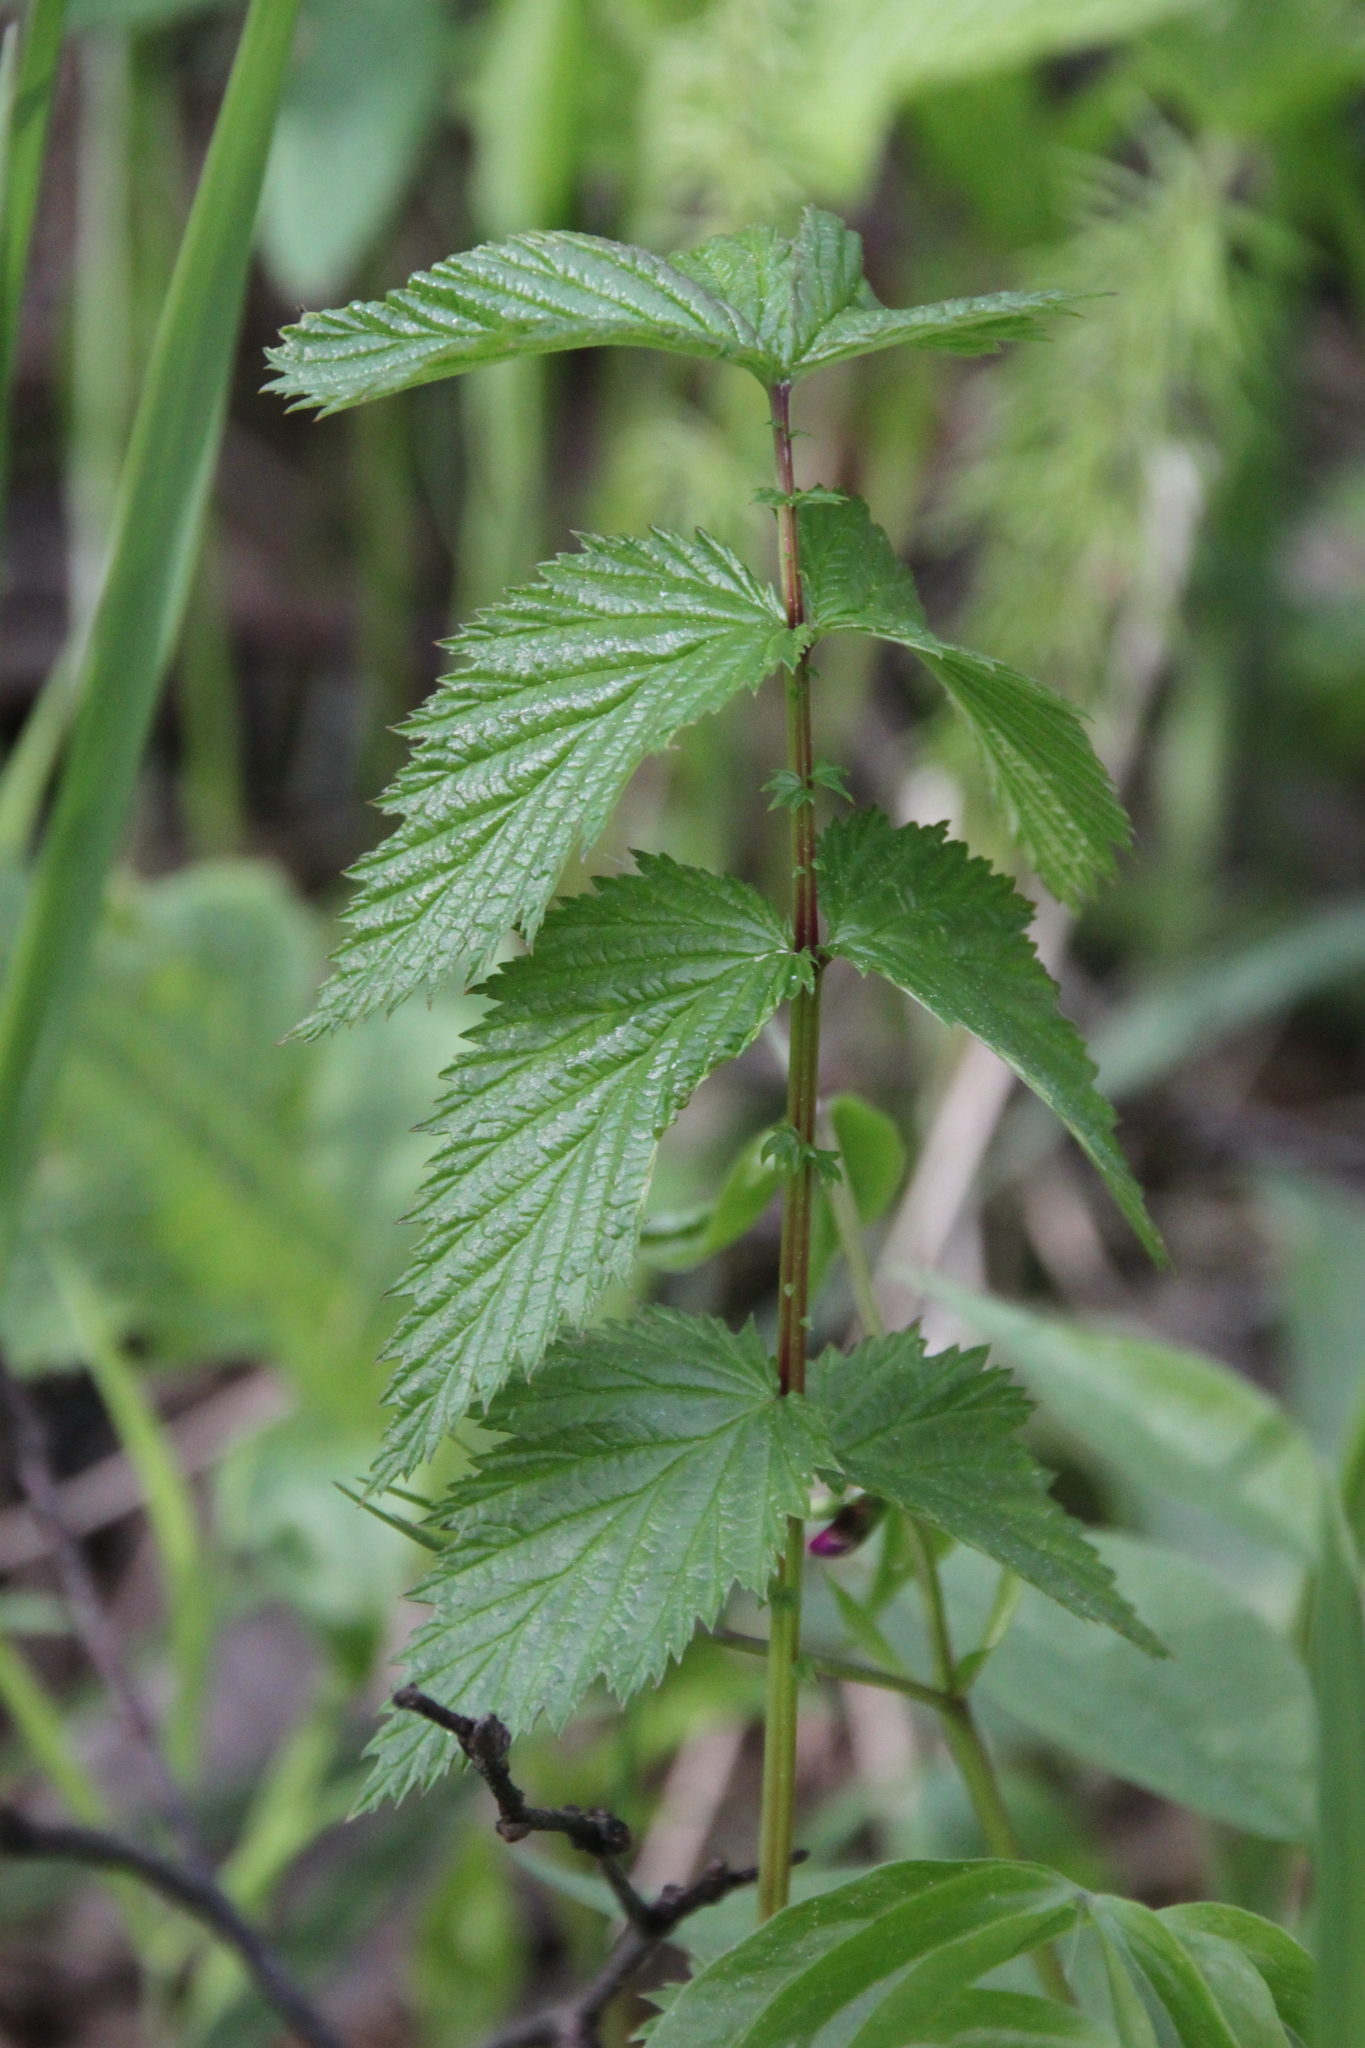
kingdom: Plantae
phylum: Tracheophyta
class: Magnoliopsida
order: Rosales
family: Rosaceae
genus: Filipendula
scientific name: Filipendula ulmaria
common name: Meadowsweet
